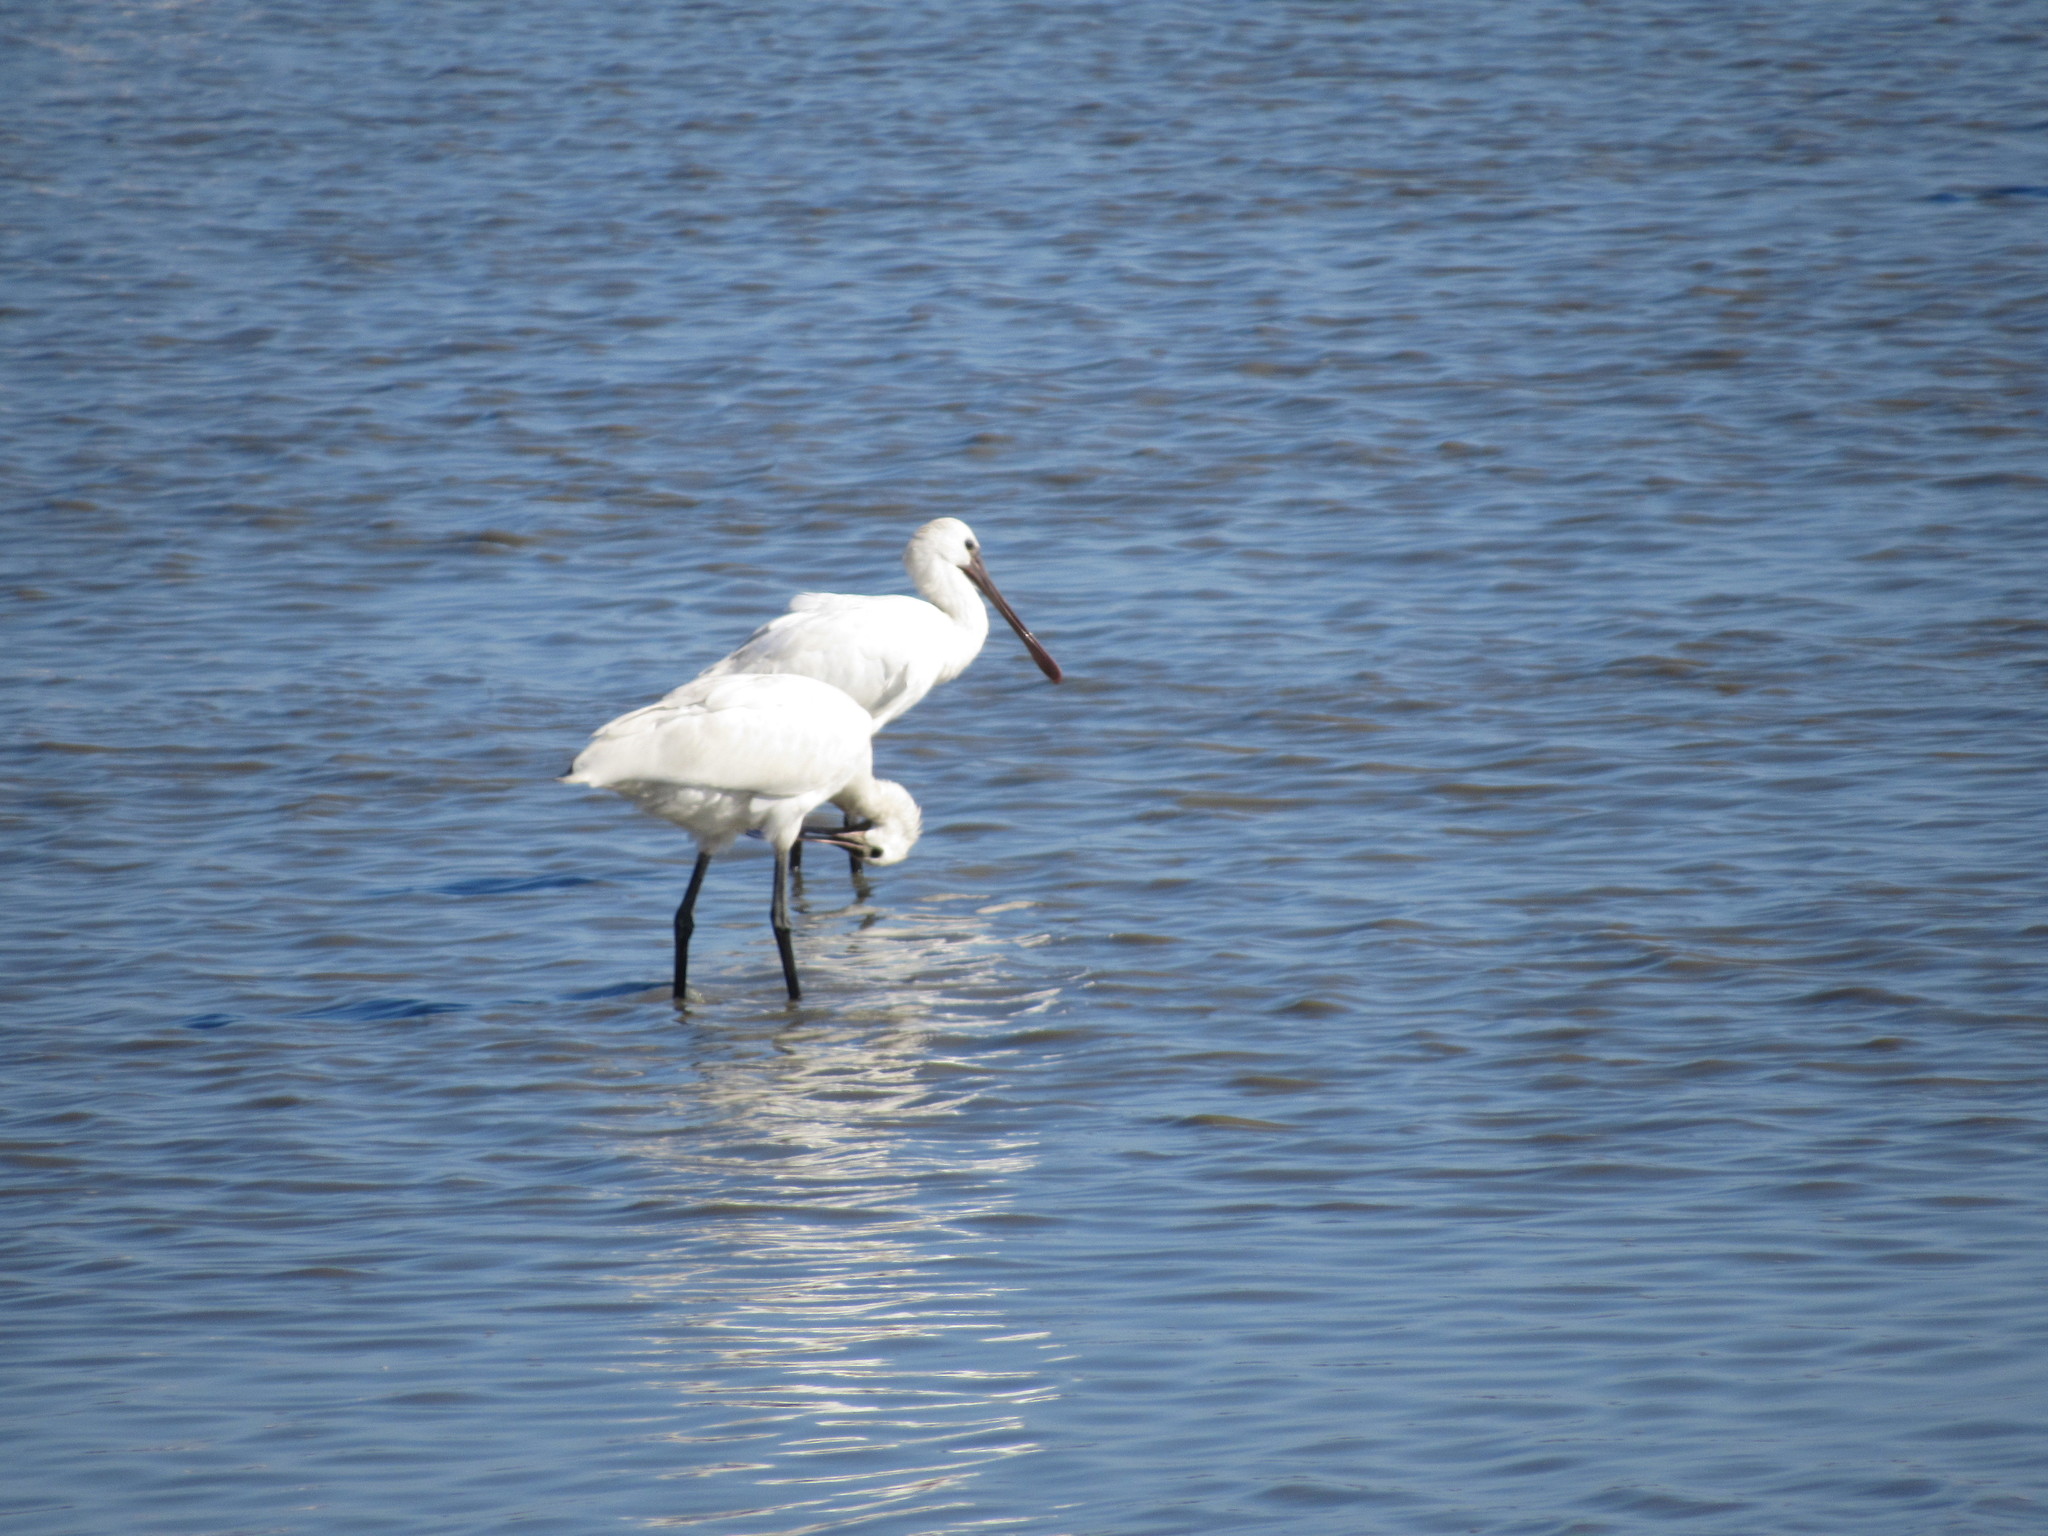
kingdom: Animalia
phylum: Chordata
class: Aves
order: Pelecaniformes
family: Threskiornithidae
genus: Platalea
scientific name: Platalea leucorodia
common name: Eurasian spoonbill
